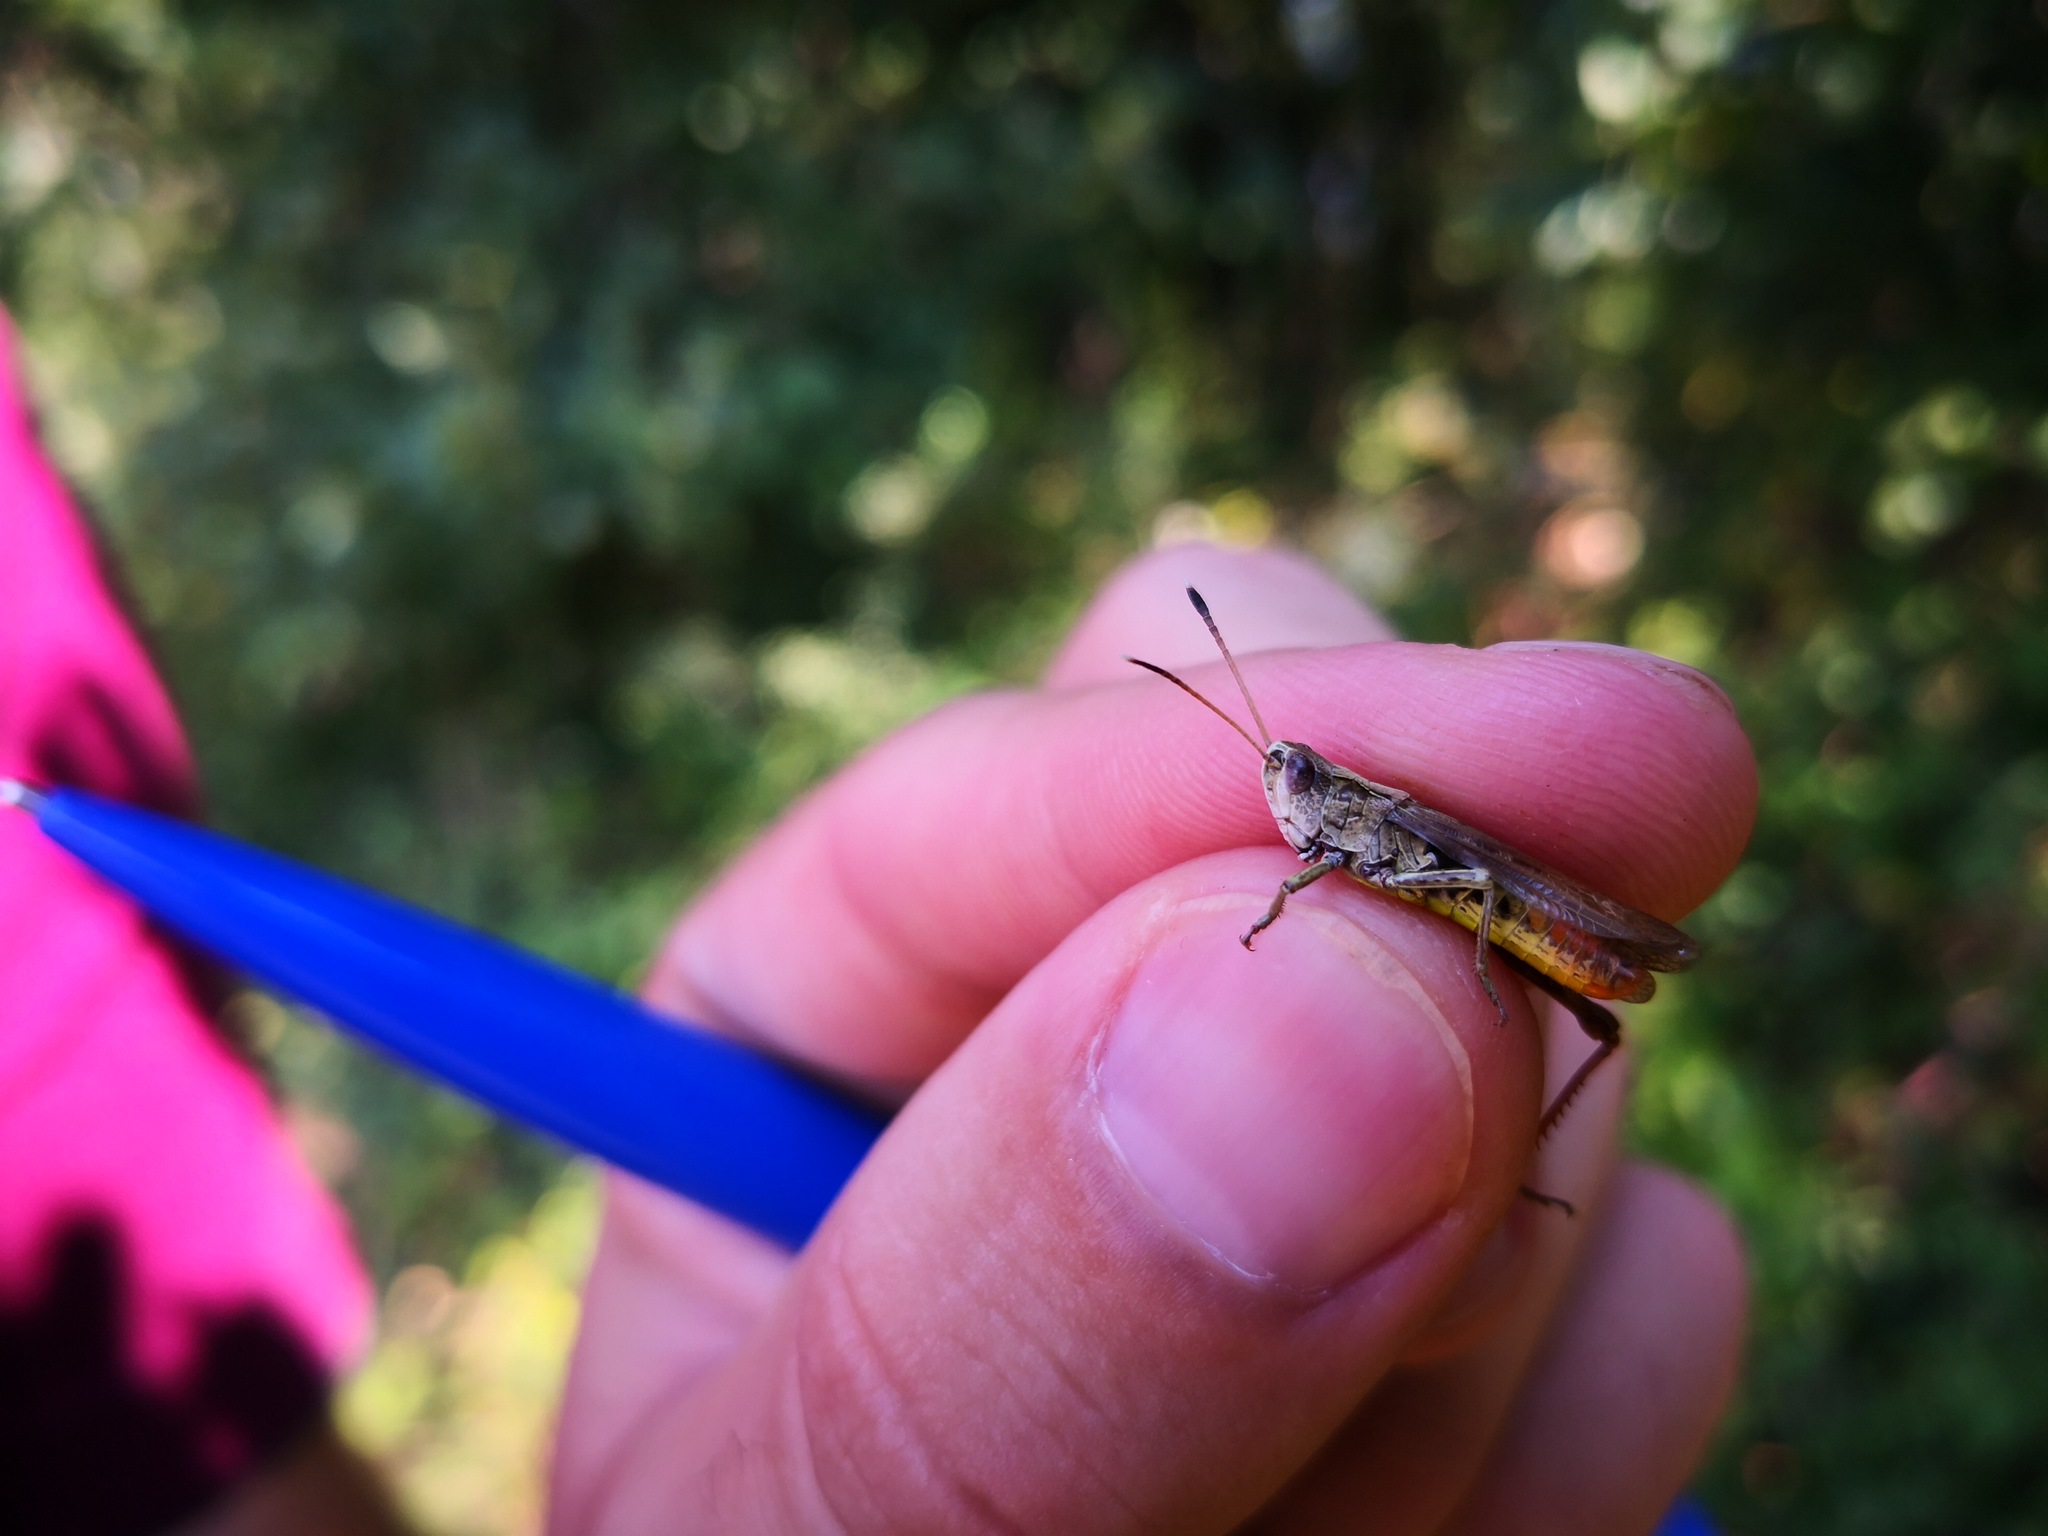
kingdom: Animalia
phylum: Arthropoda
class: Insecta
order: Orthoptera
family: Acrididae
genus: Gomphocerippus
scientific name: Gomphocerippus rufus
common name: Rufous grasshopper
